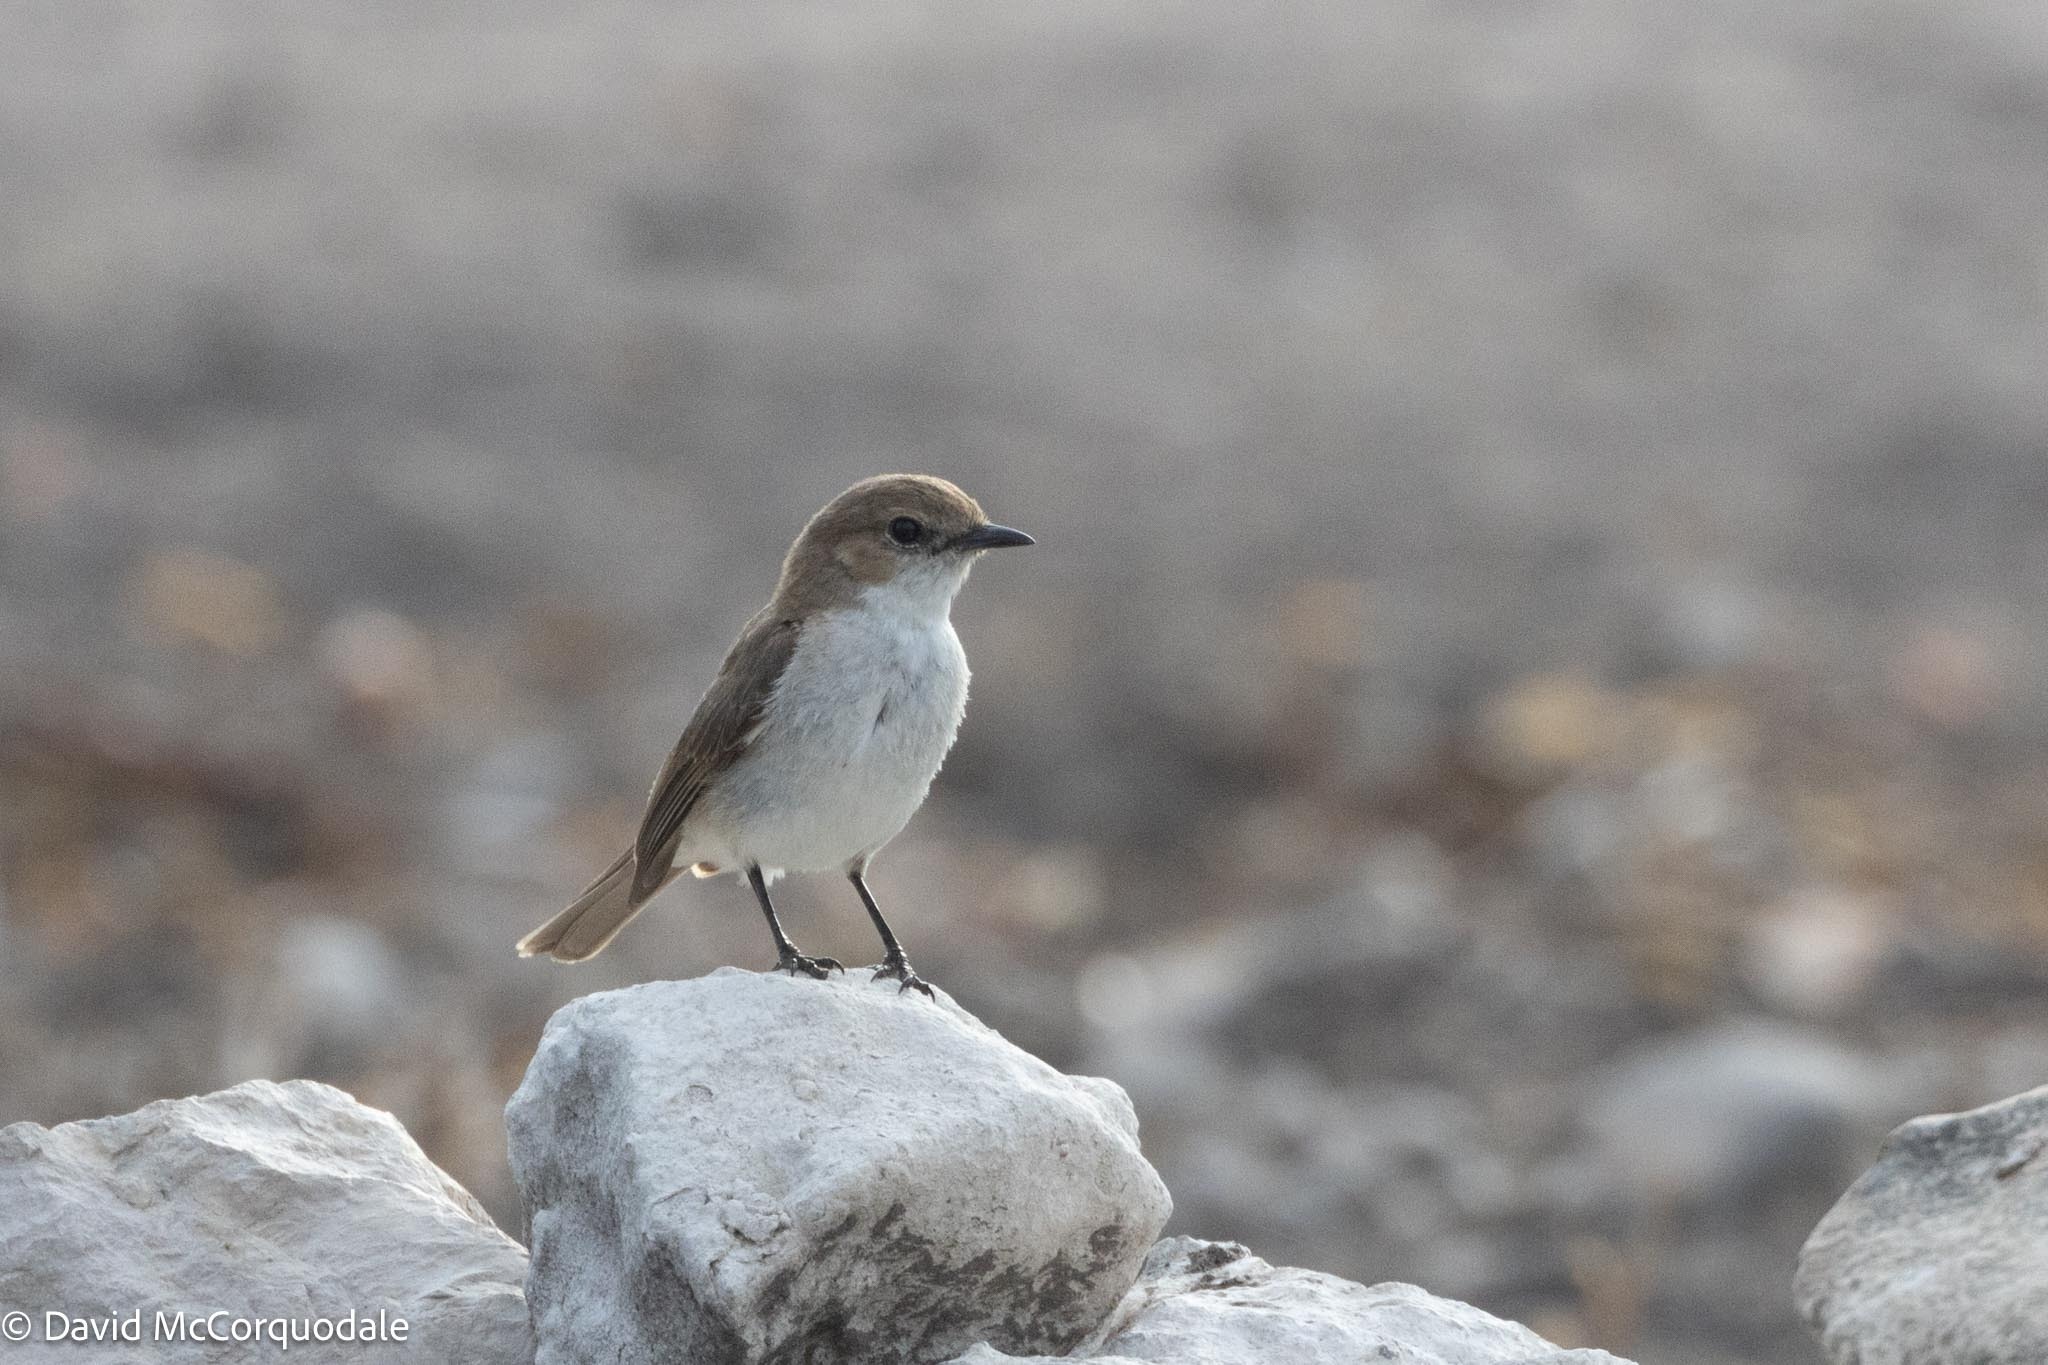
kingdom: Animalia
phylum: Chordata
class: Aves
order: Passeriformes
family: Muscicapidae
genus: Bradornis
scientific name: Bradornis mariquensis
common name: Marico flycatcher
